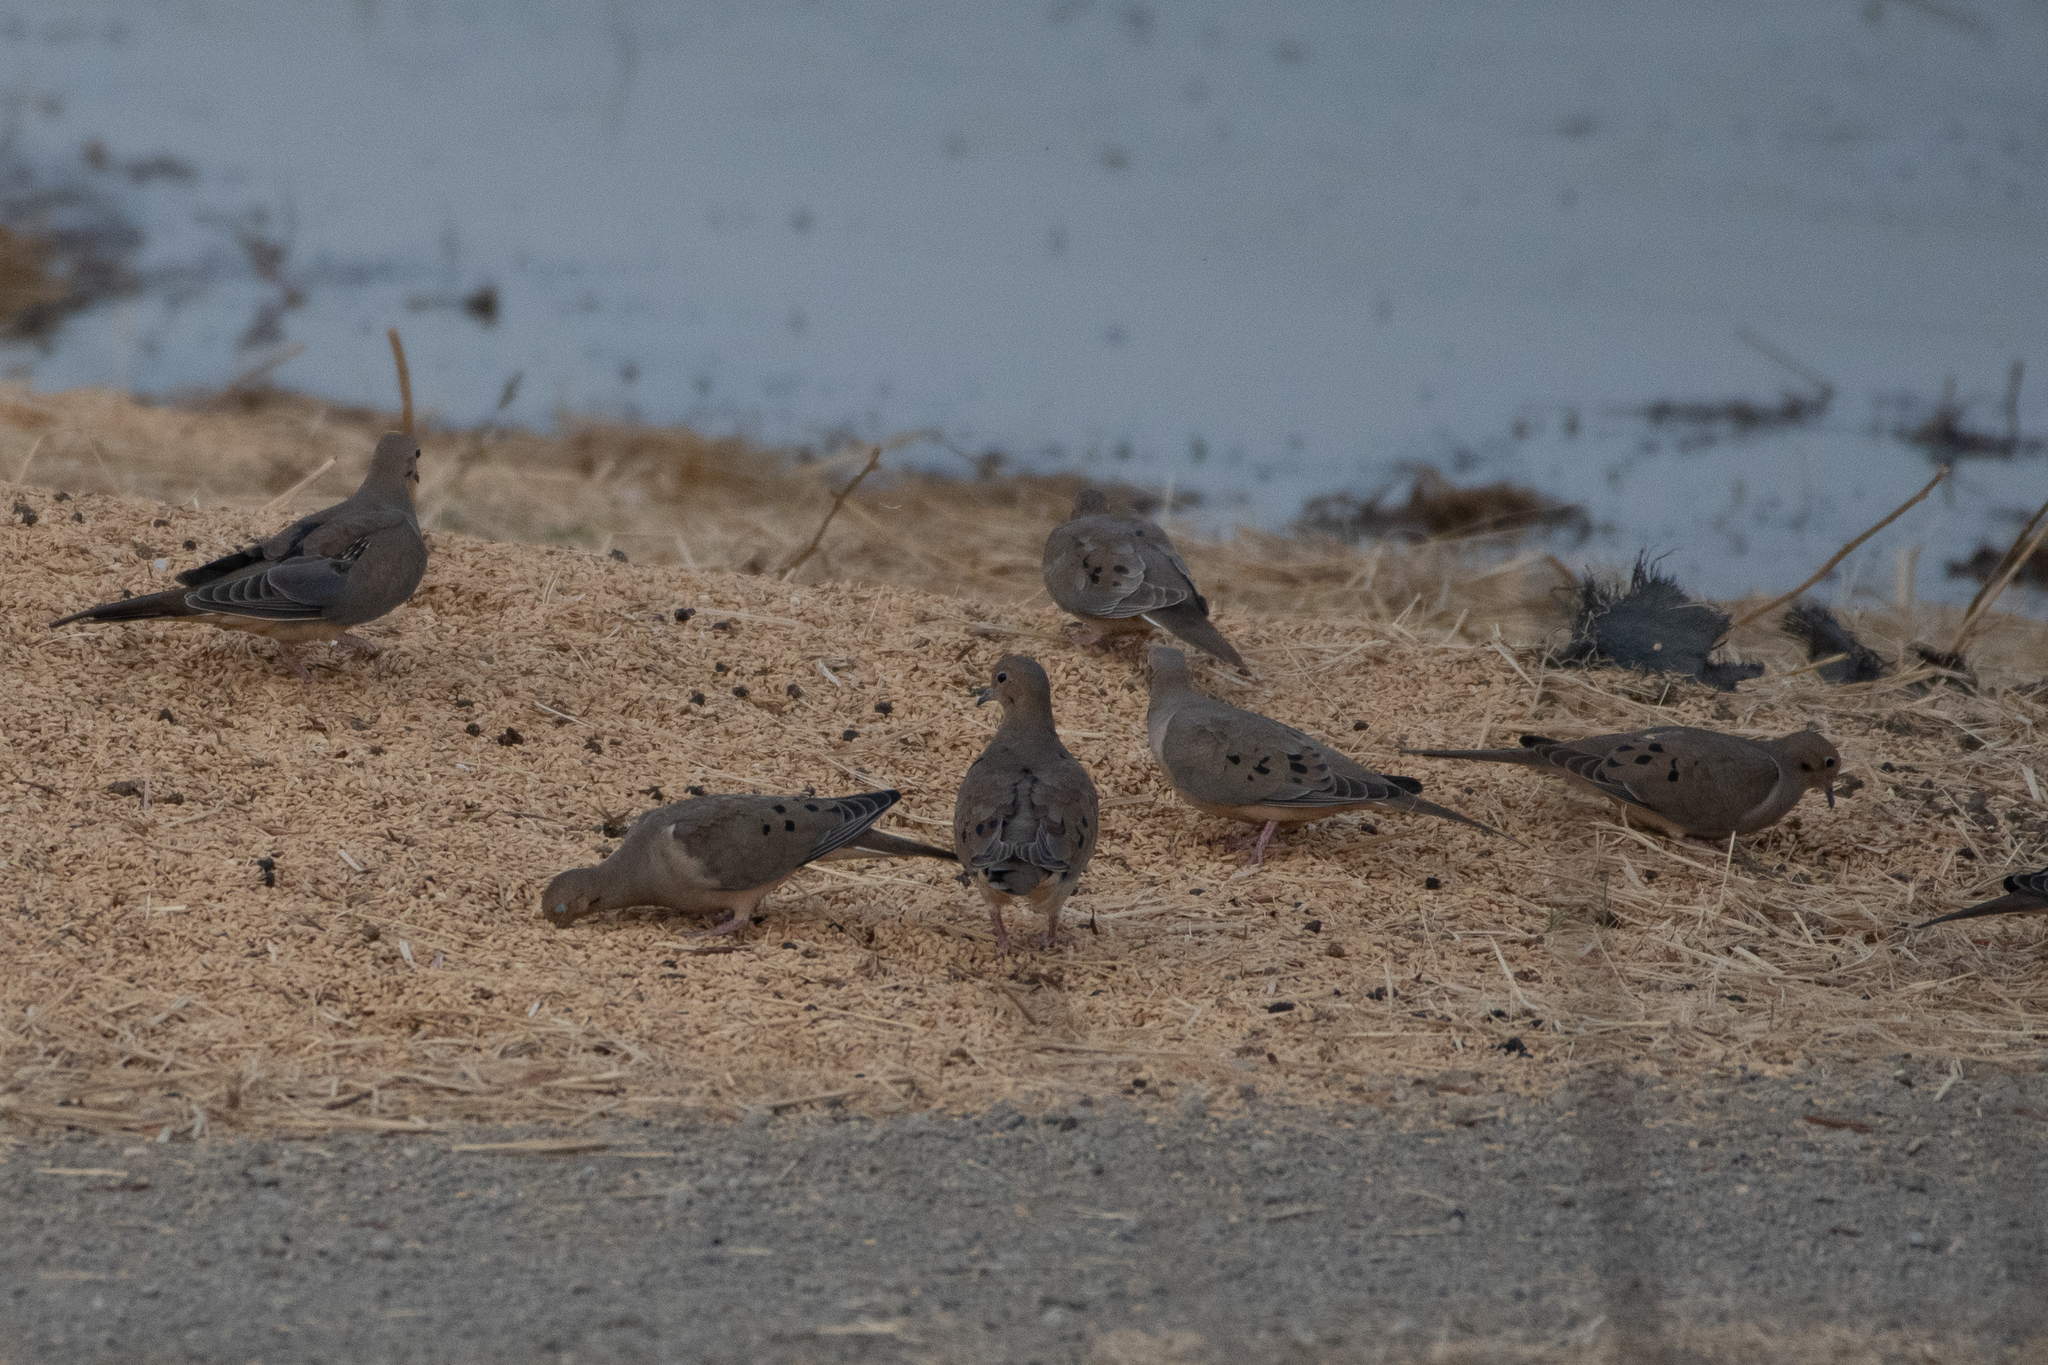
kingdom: Animalia
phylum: Chordata
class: Aves
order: Columbiformes
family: Columbidae
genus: Zenaida
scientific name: Zenaida macroura
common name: Mourning dove
